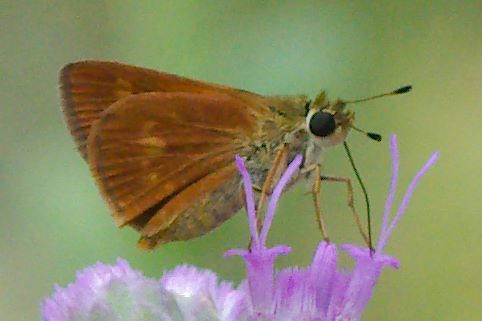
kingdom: Animalia
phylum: Arthropoda
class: Insecta
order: Lepidoptera
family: Hesperiidae
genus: Polites
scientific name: Polites otho
